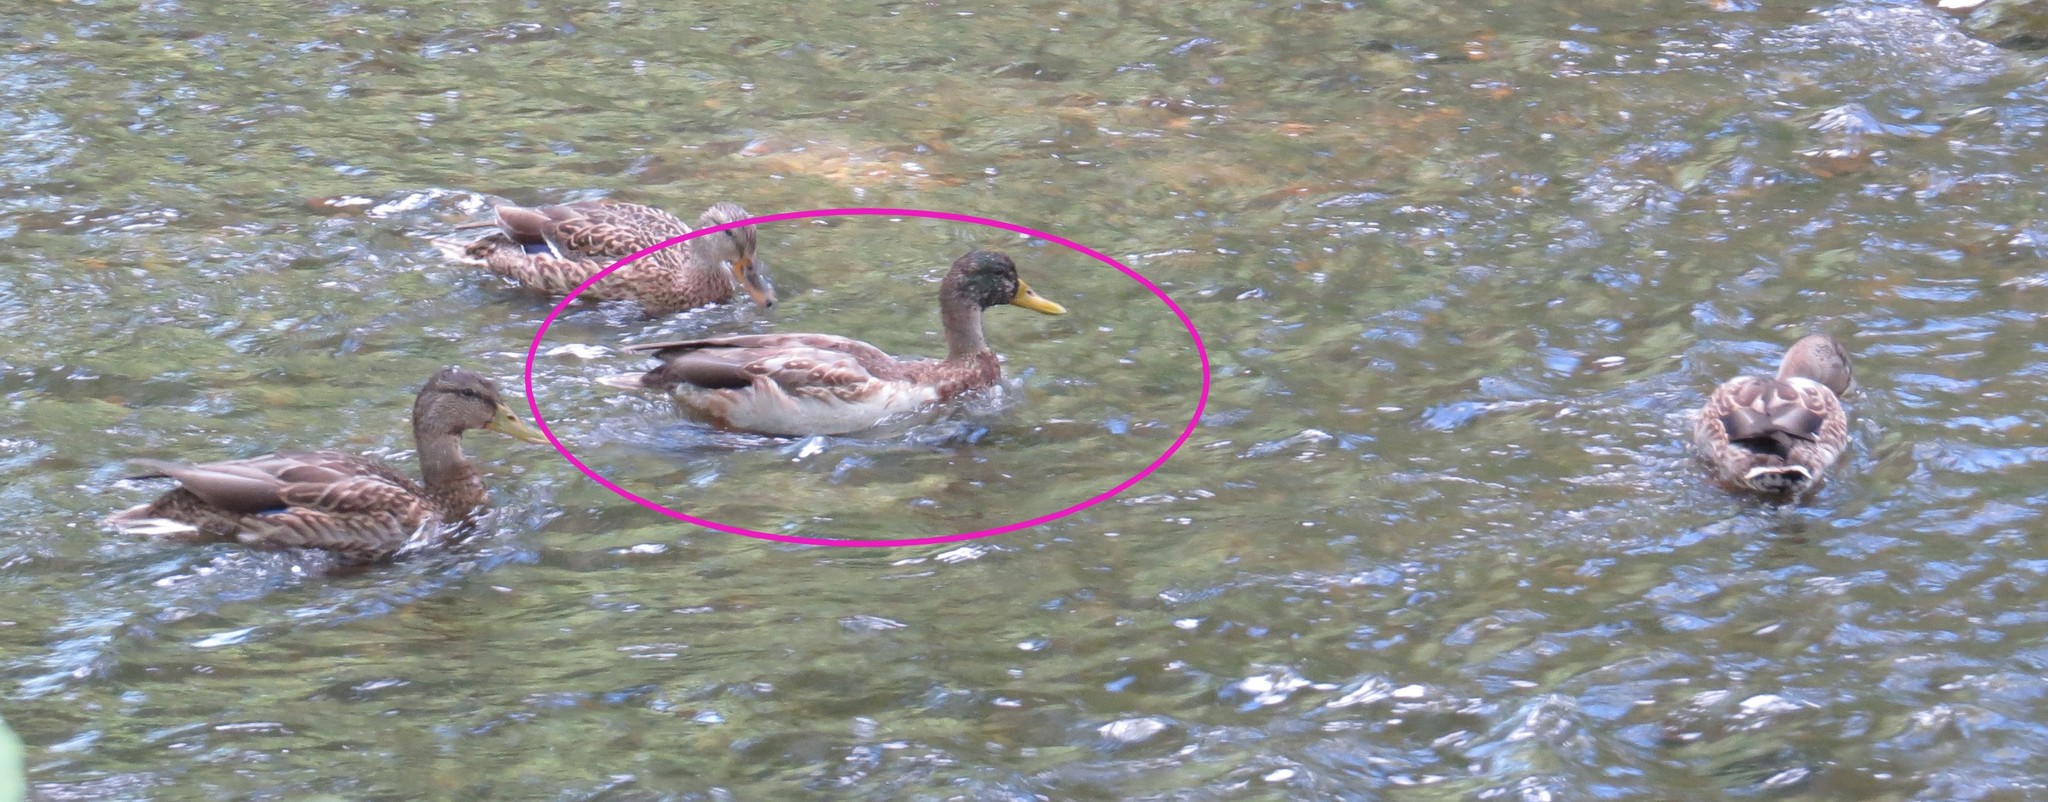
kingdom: Animalia
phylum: Chordata
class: Aves
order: Anseriformes
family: Anatidae
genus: Anas
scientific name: Anas platyrhynchos
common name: Mallard
